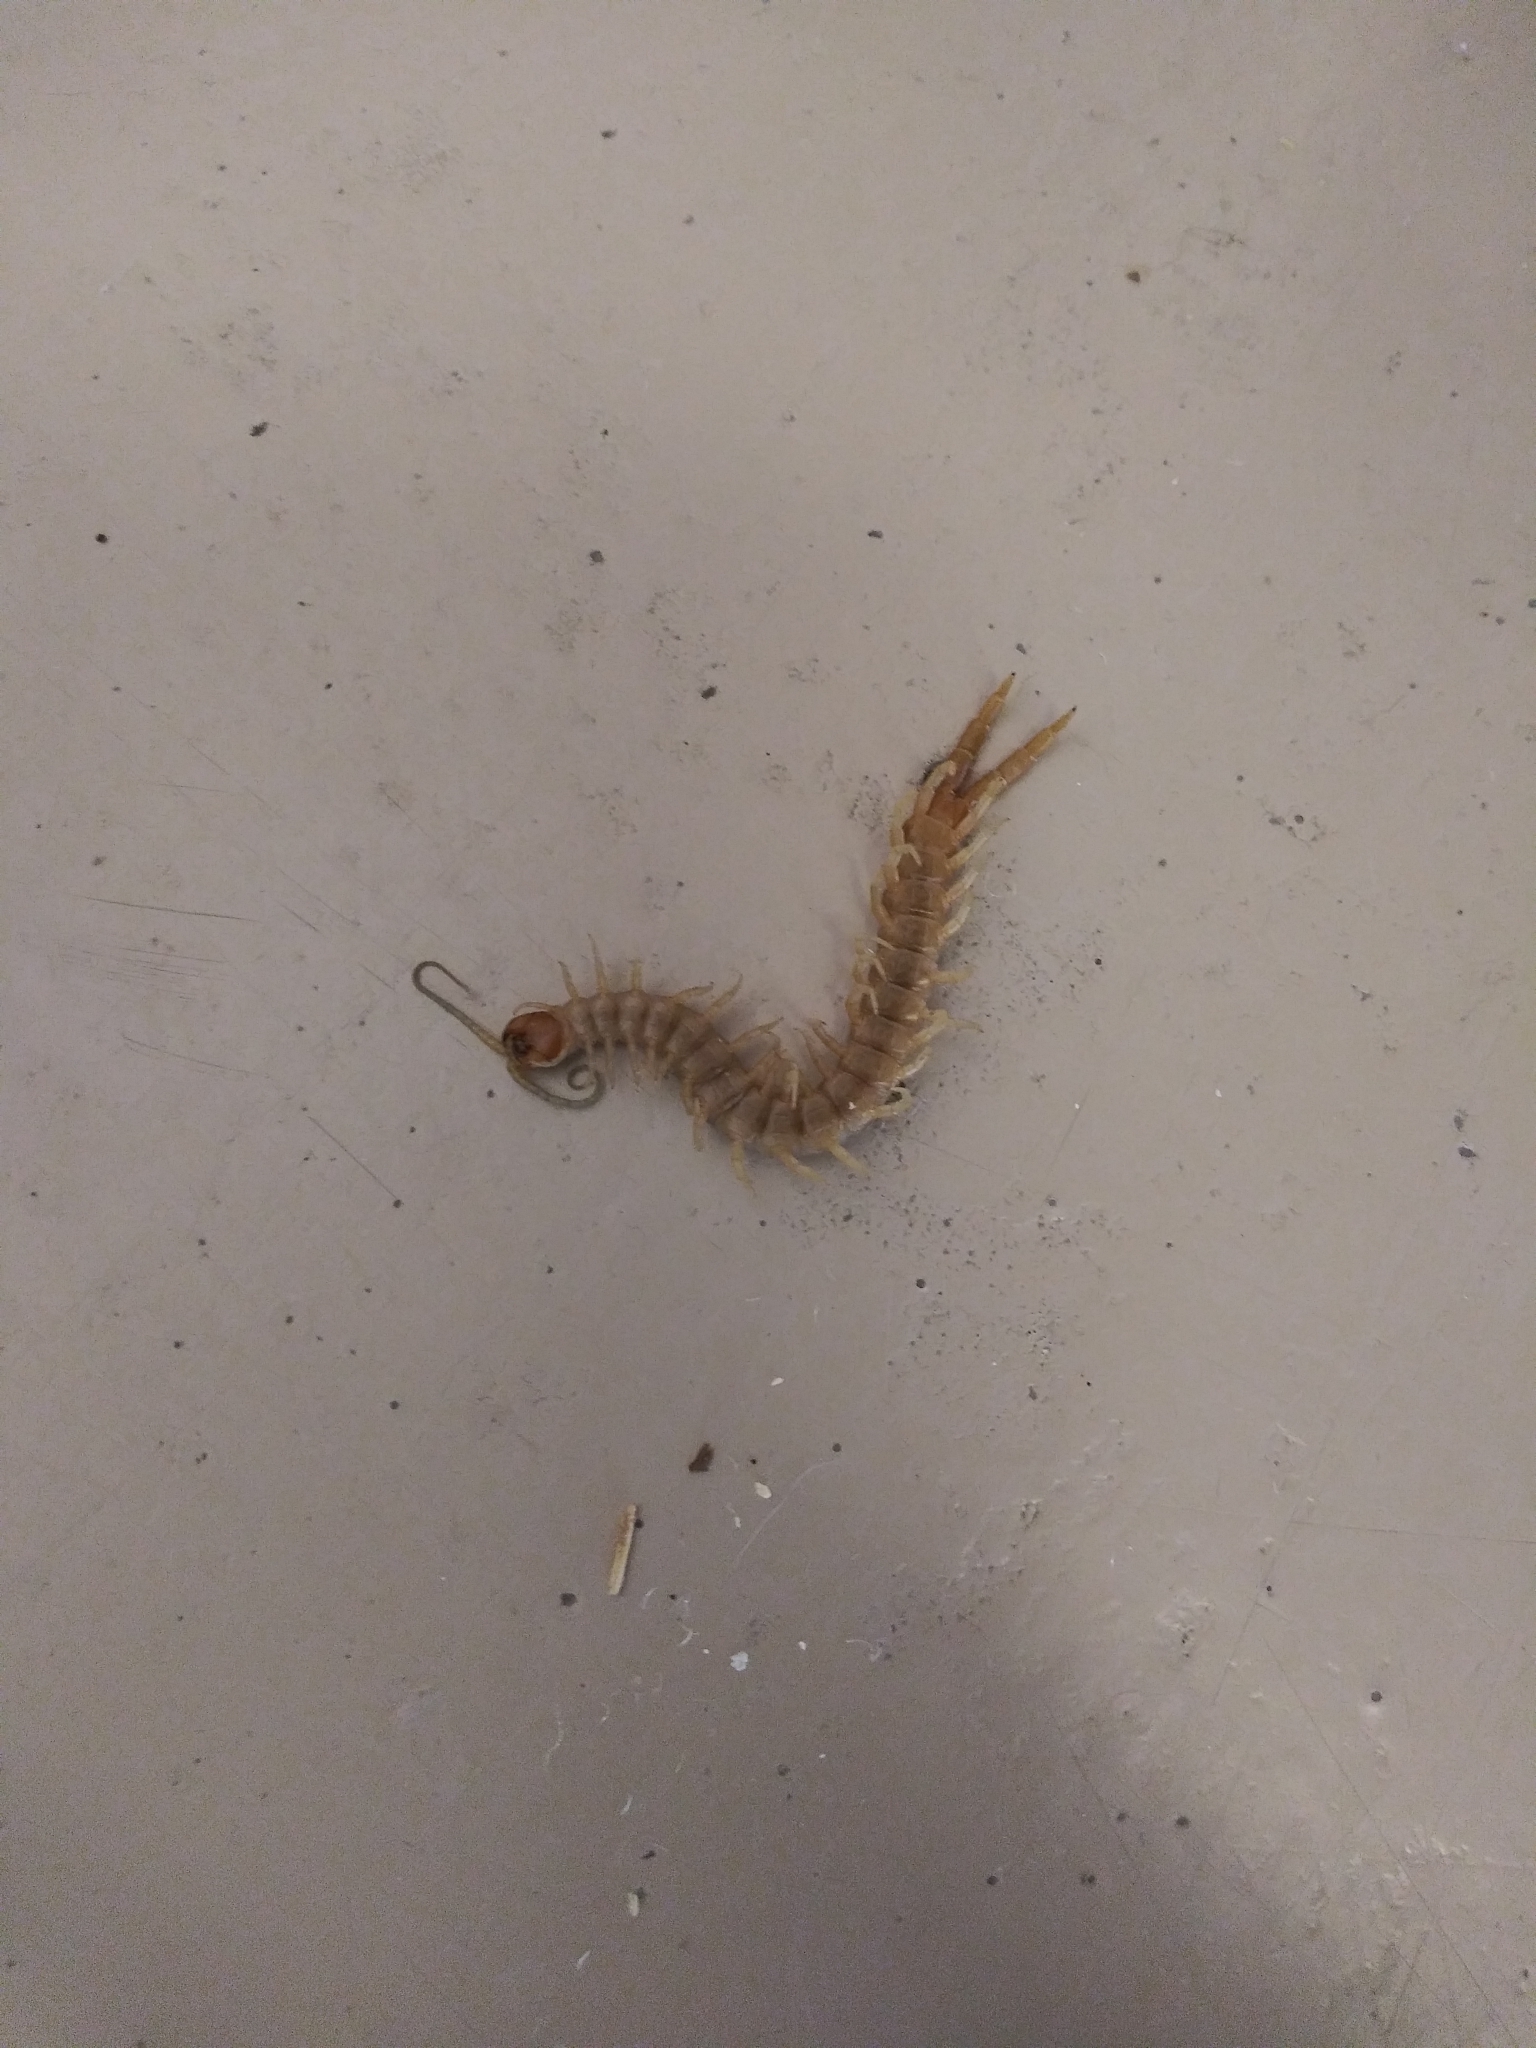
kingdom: Animalia
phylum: Arthropoda
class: Chilopoda
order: Scolopendromorpha
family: Scolopendridae
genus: Scolopendra
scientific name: Scolopendra polymorpha
